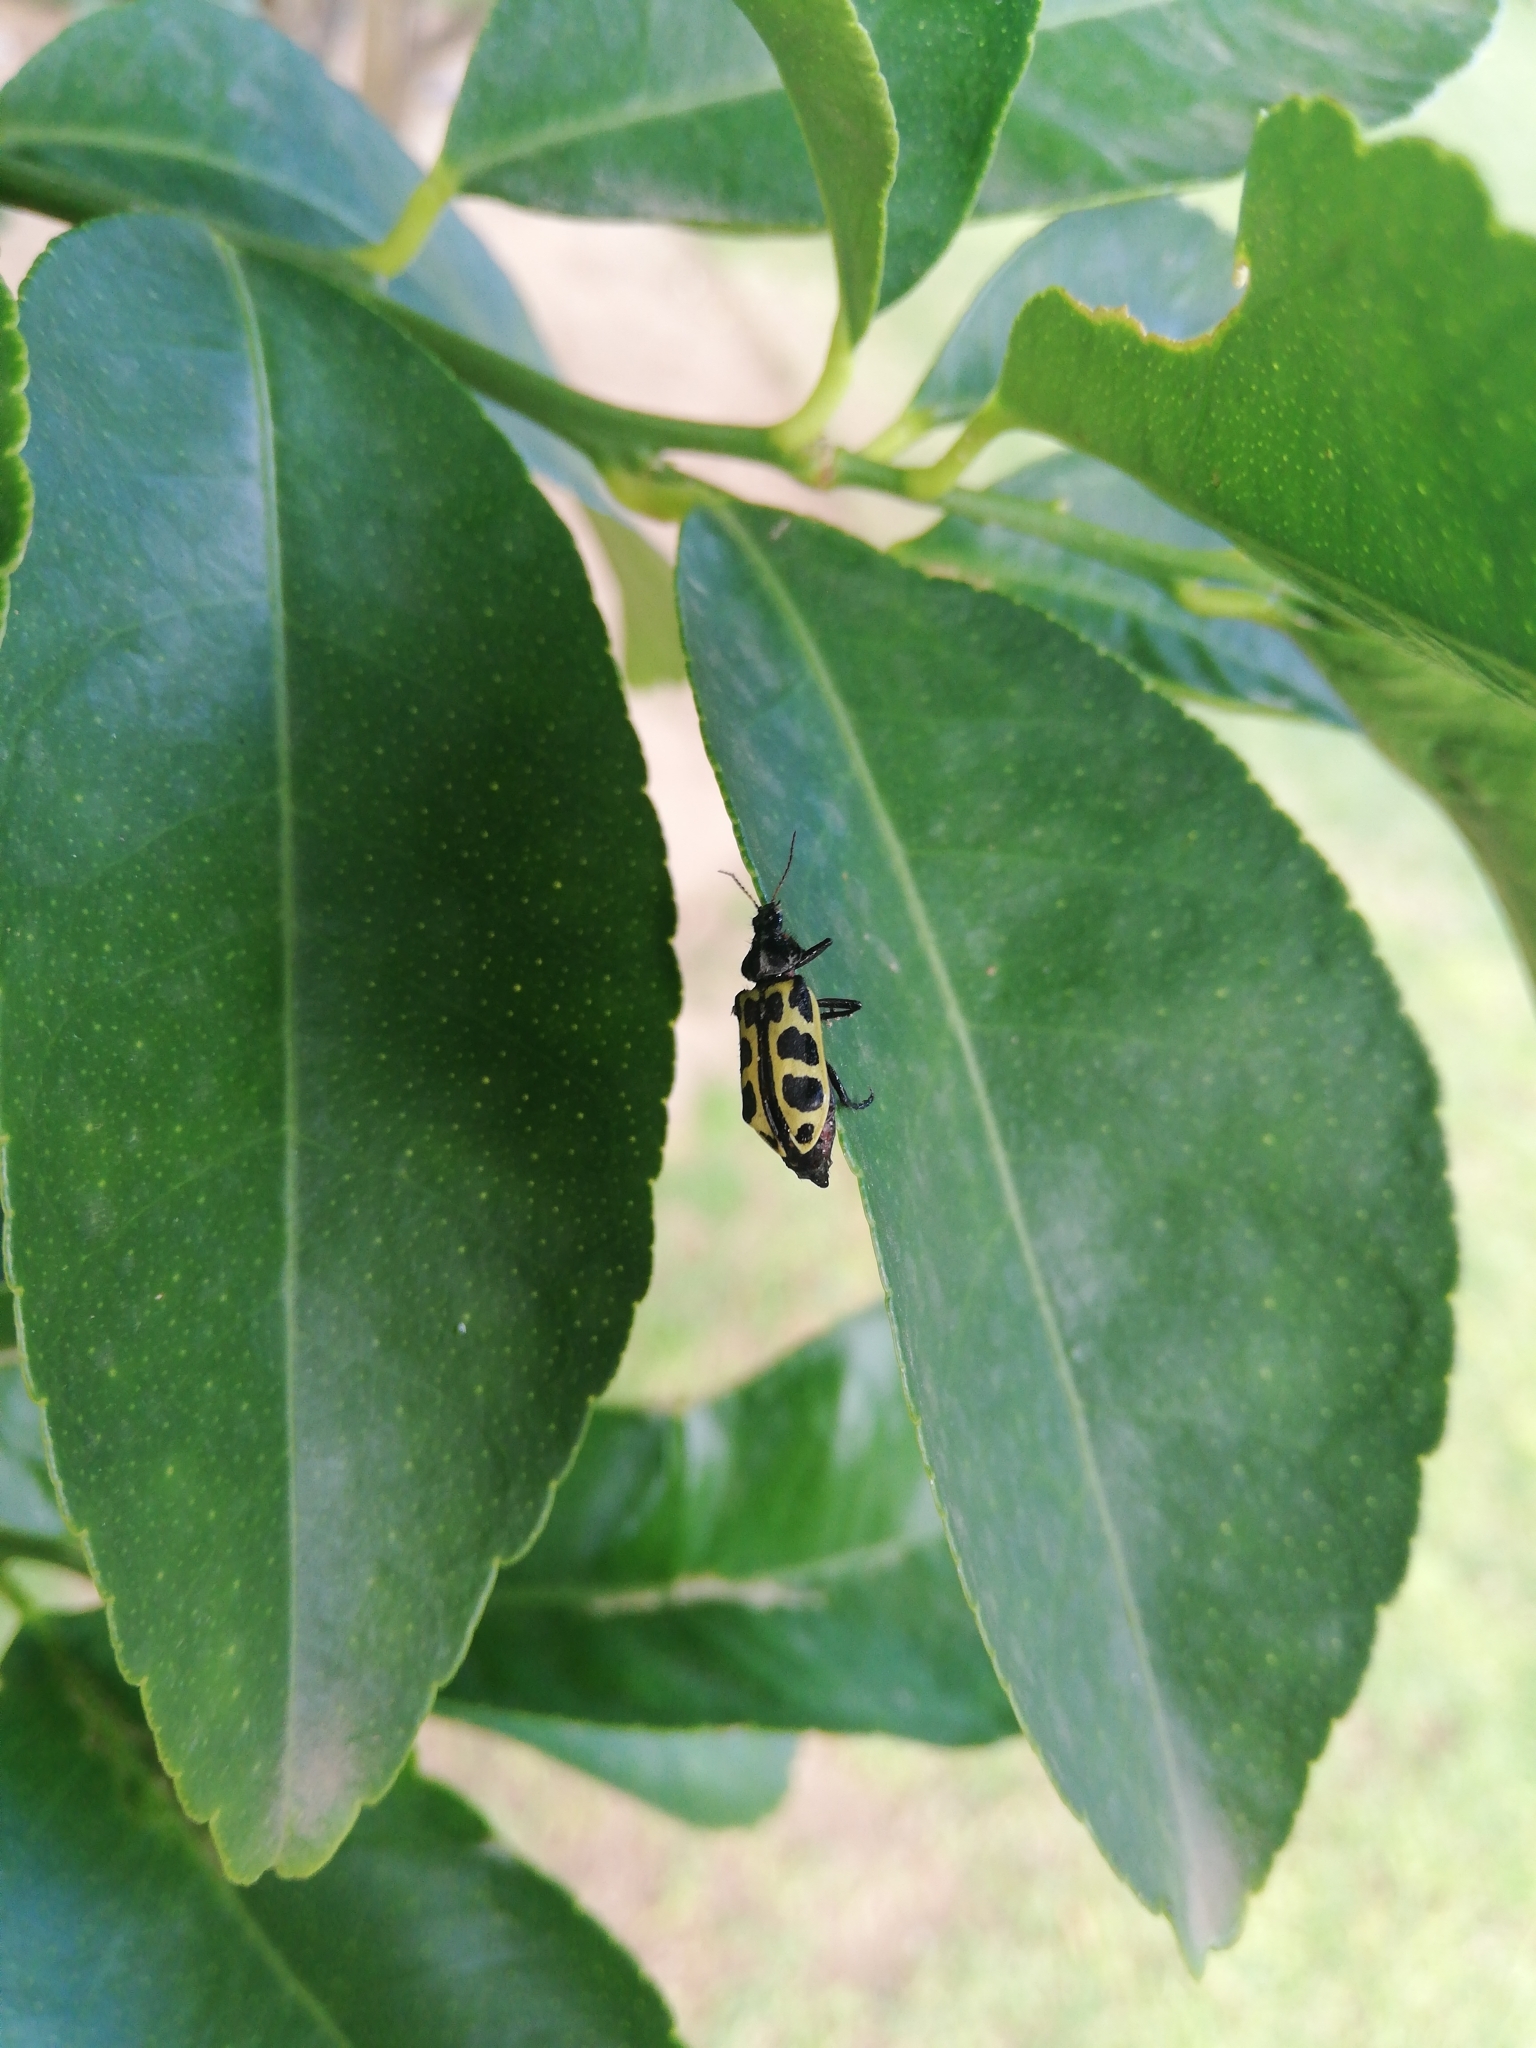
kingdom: Animalia
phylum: Arthropoda
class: Insecta
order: Coleoptera
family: Melyridae
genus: Astylus
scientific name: Astylus atromaculatus
